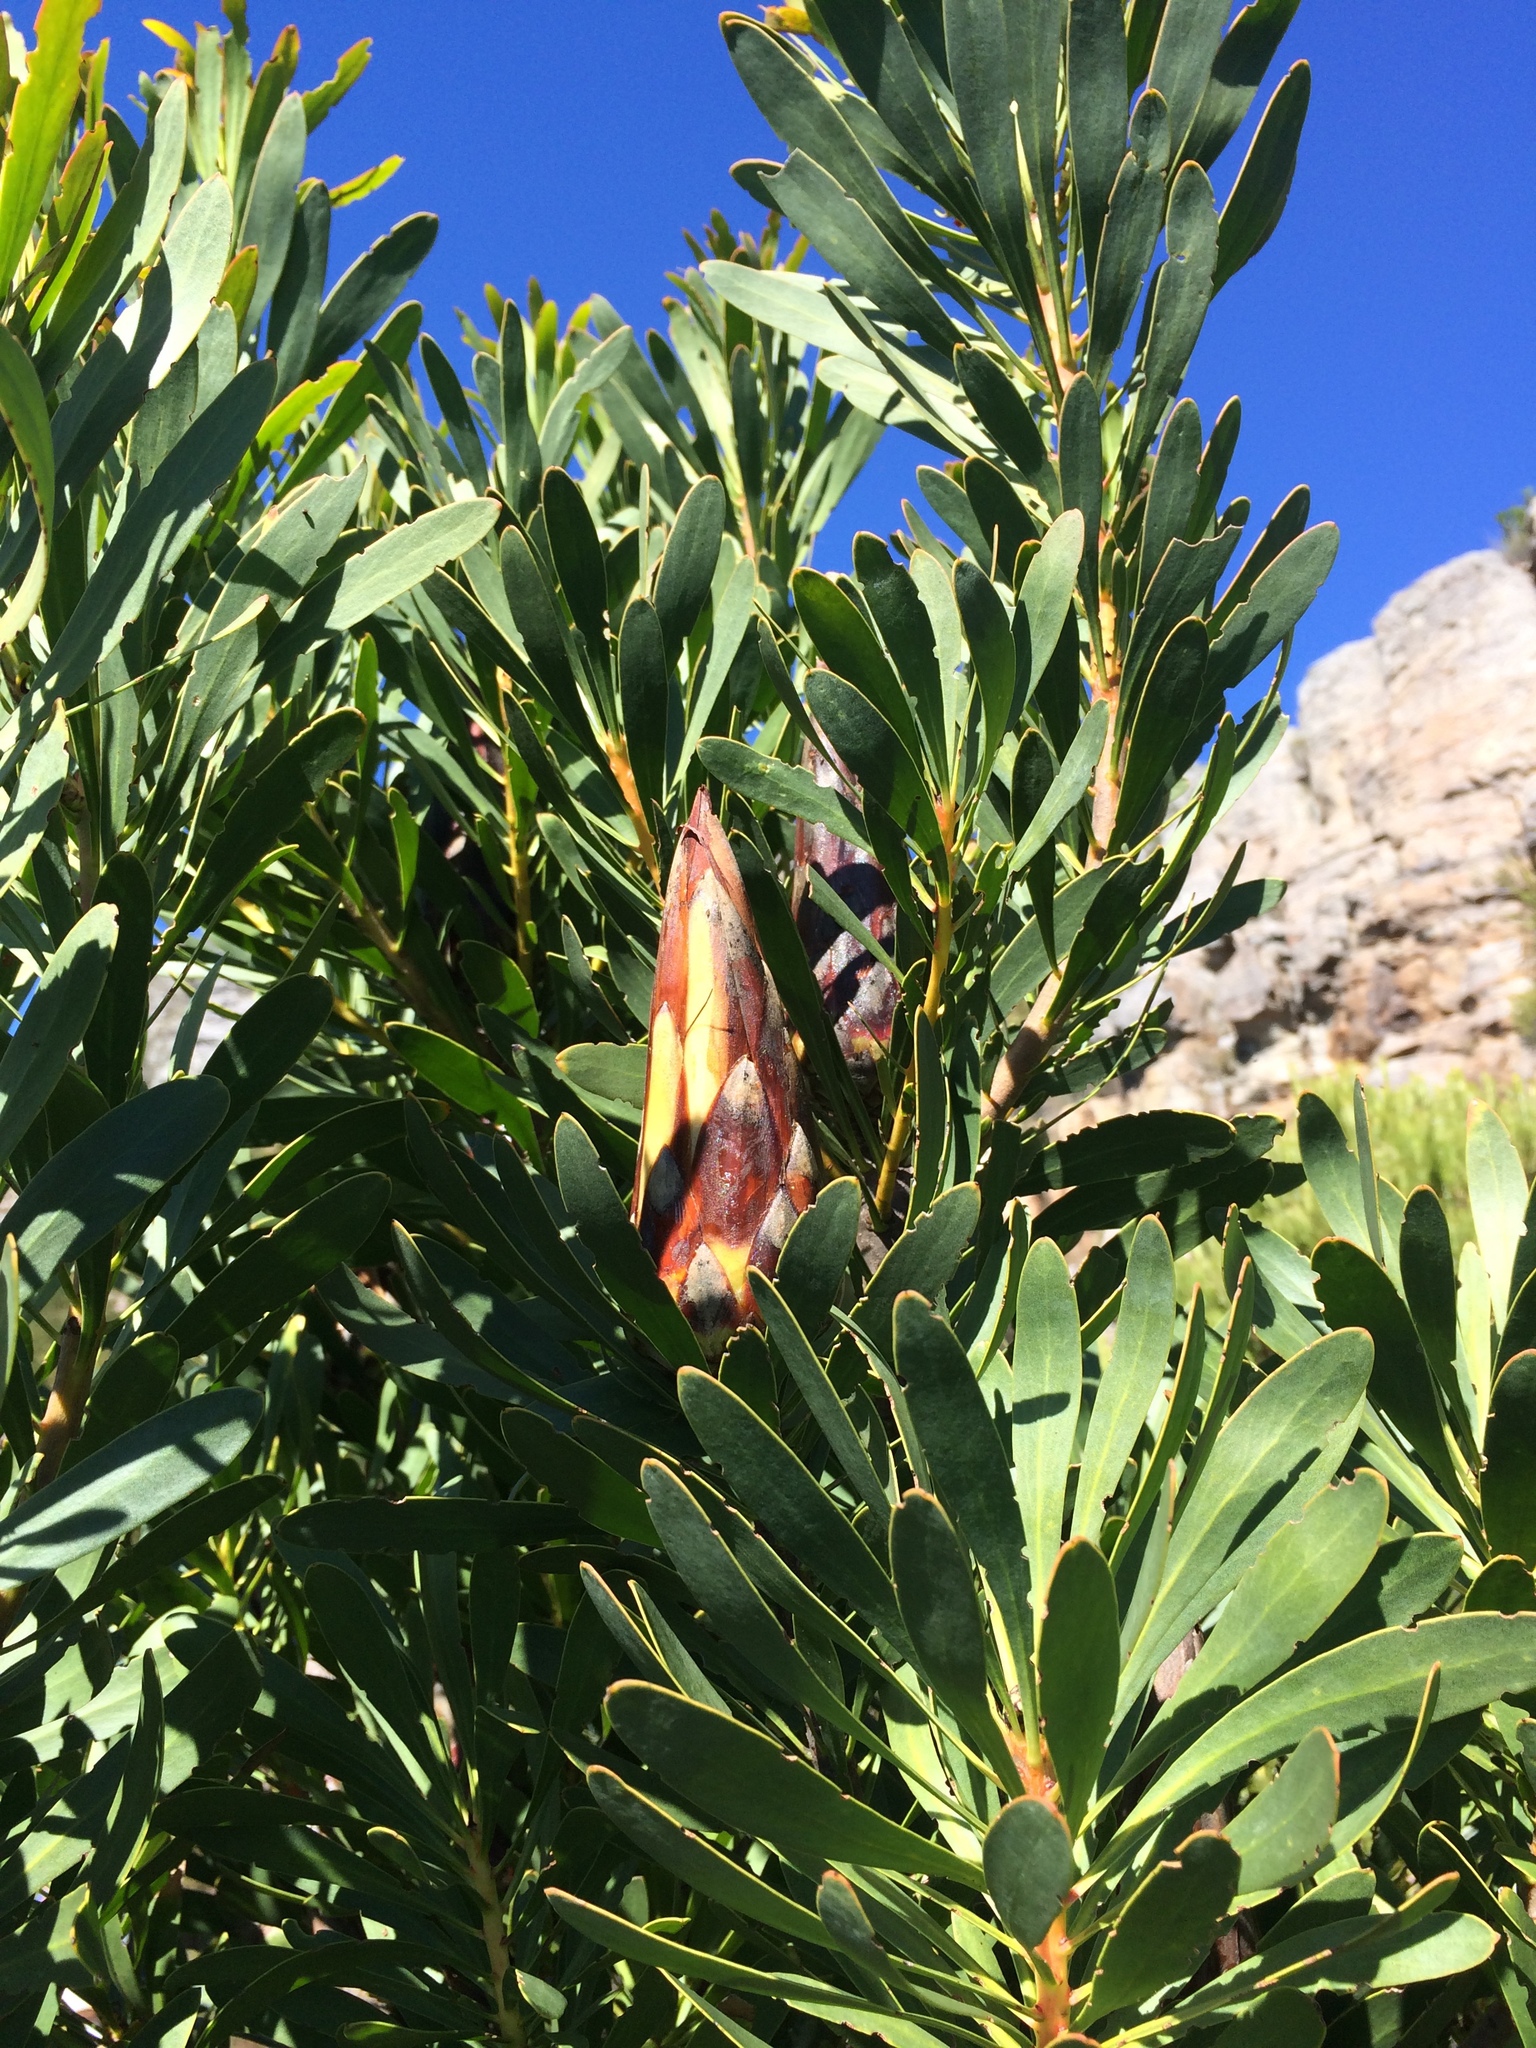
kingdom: Plantae
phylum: Tracheophyta
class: Magnoliopsida
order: Proteales
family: Proteaceae
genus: Protea
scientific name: Protea repens
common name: Sugarbush
